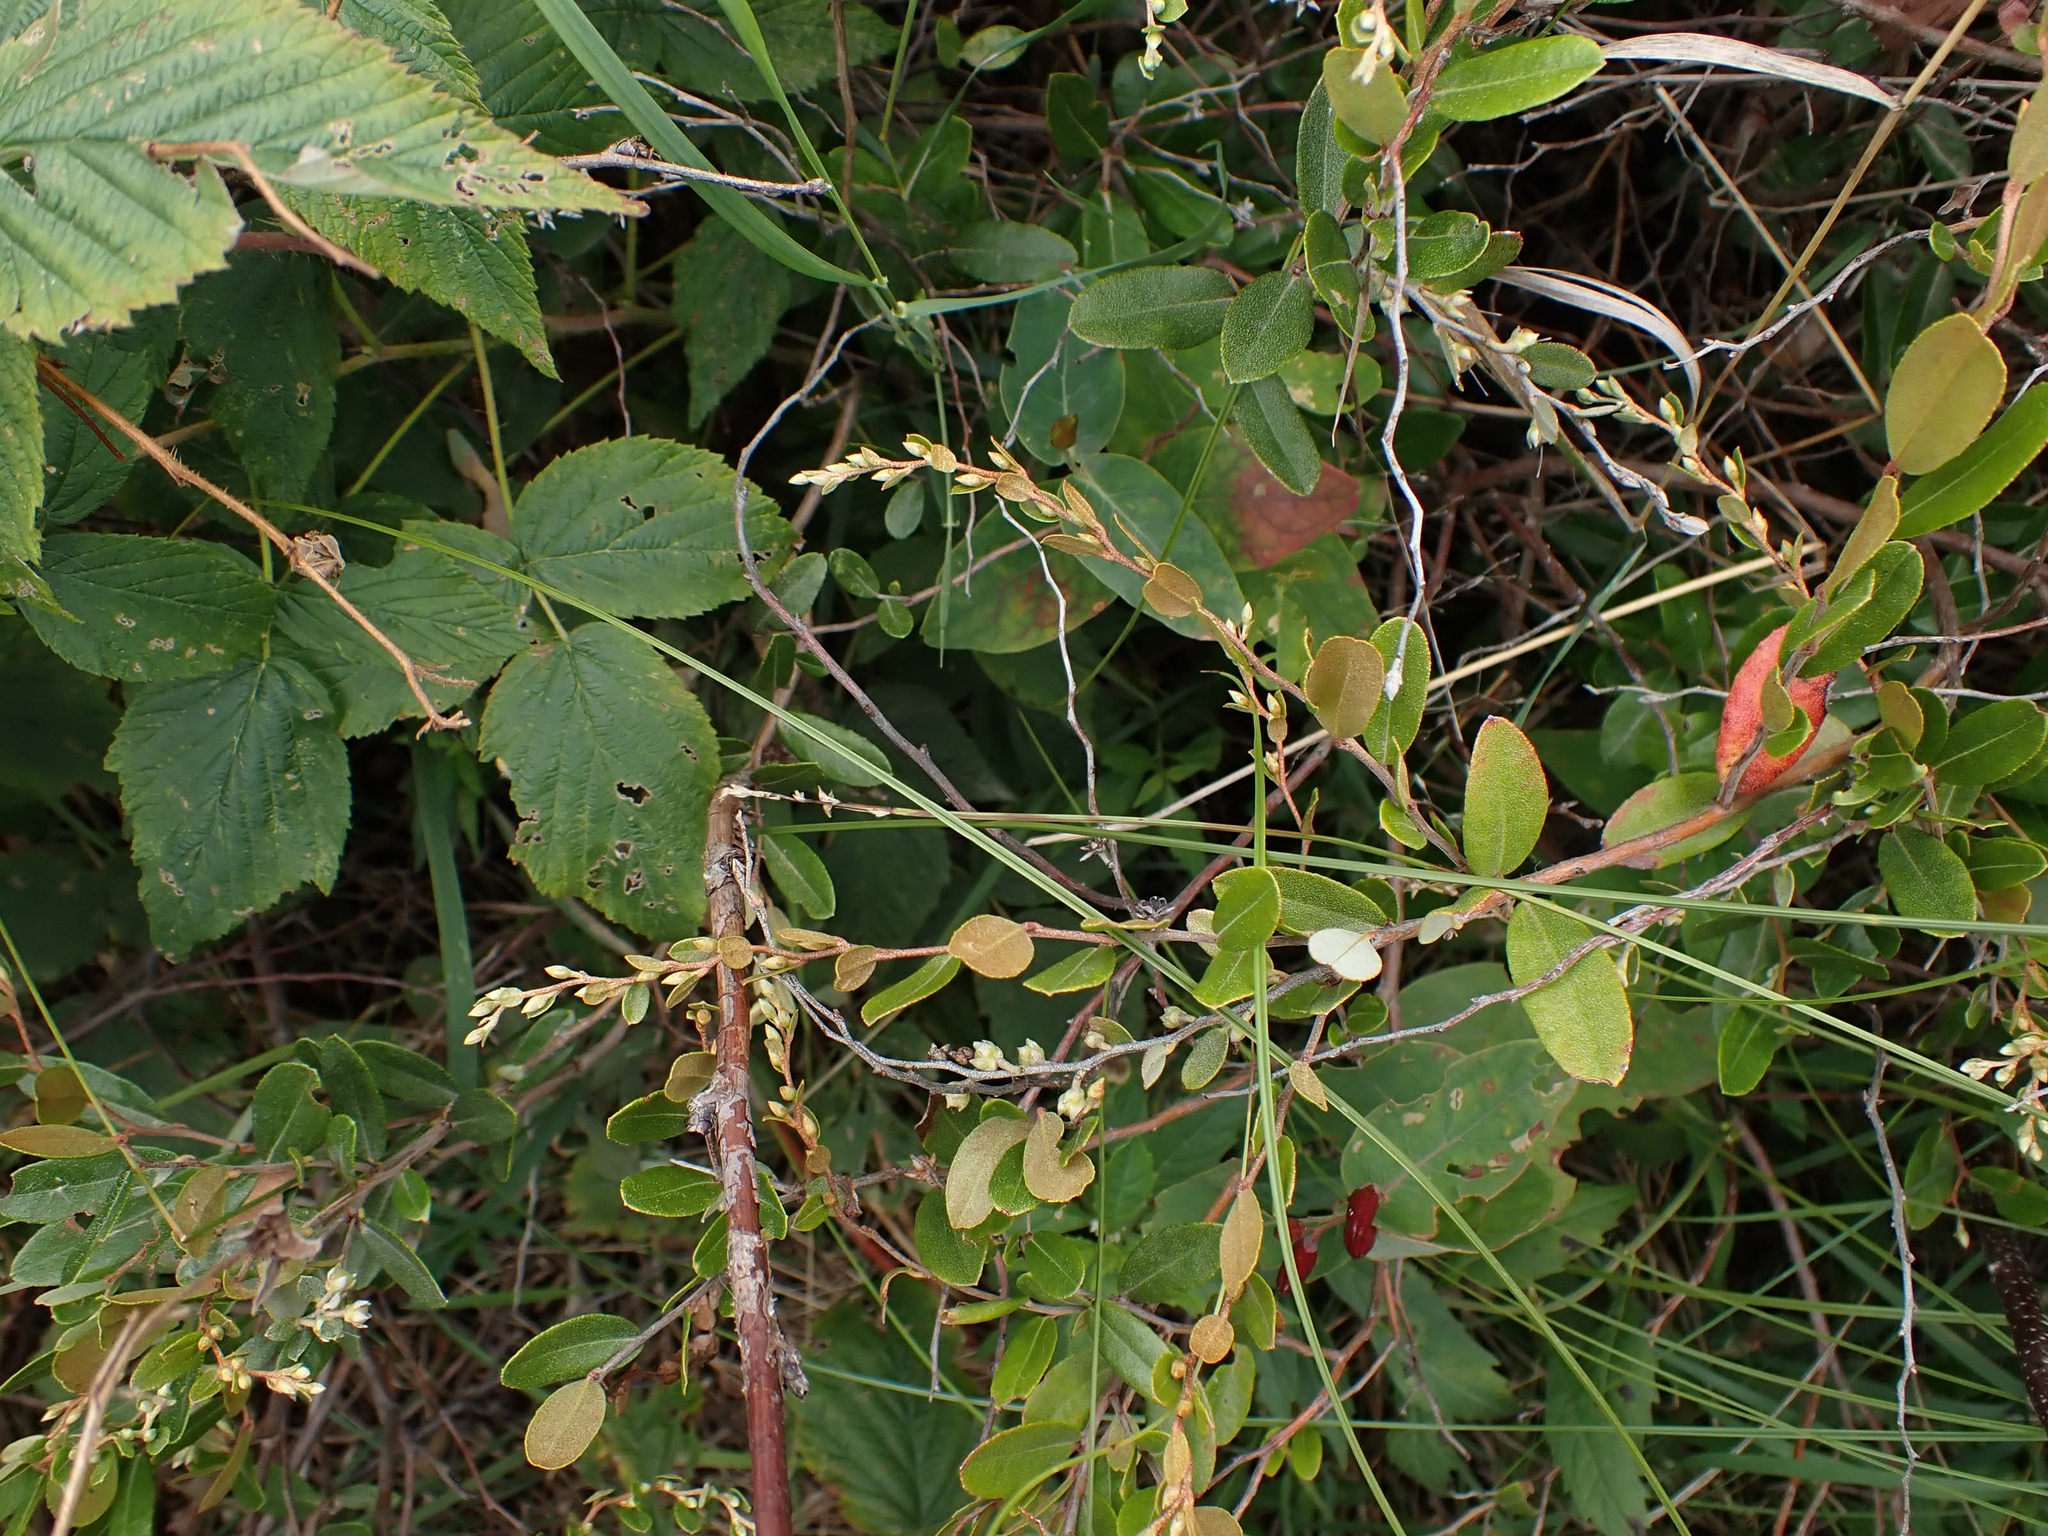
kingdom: Plantae
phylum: Tracheophyta
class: Magnoliopsida
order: Ericales
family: Ericaceae
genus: Chamaedaphne
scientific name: Chamaedaphne calyculata
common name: Leatherleaf
